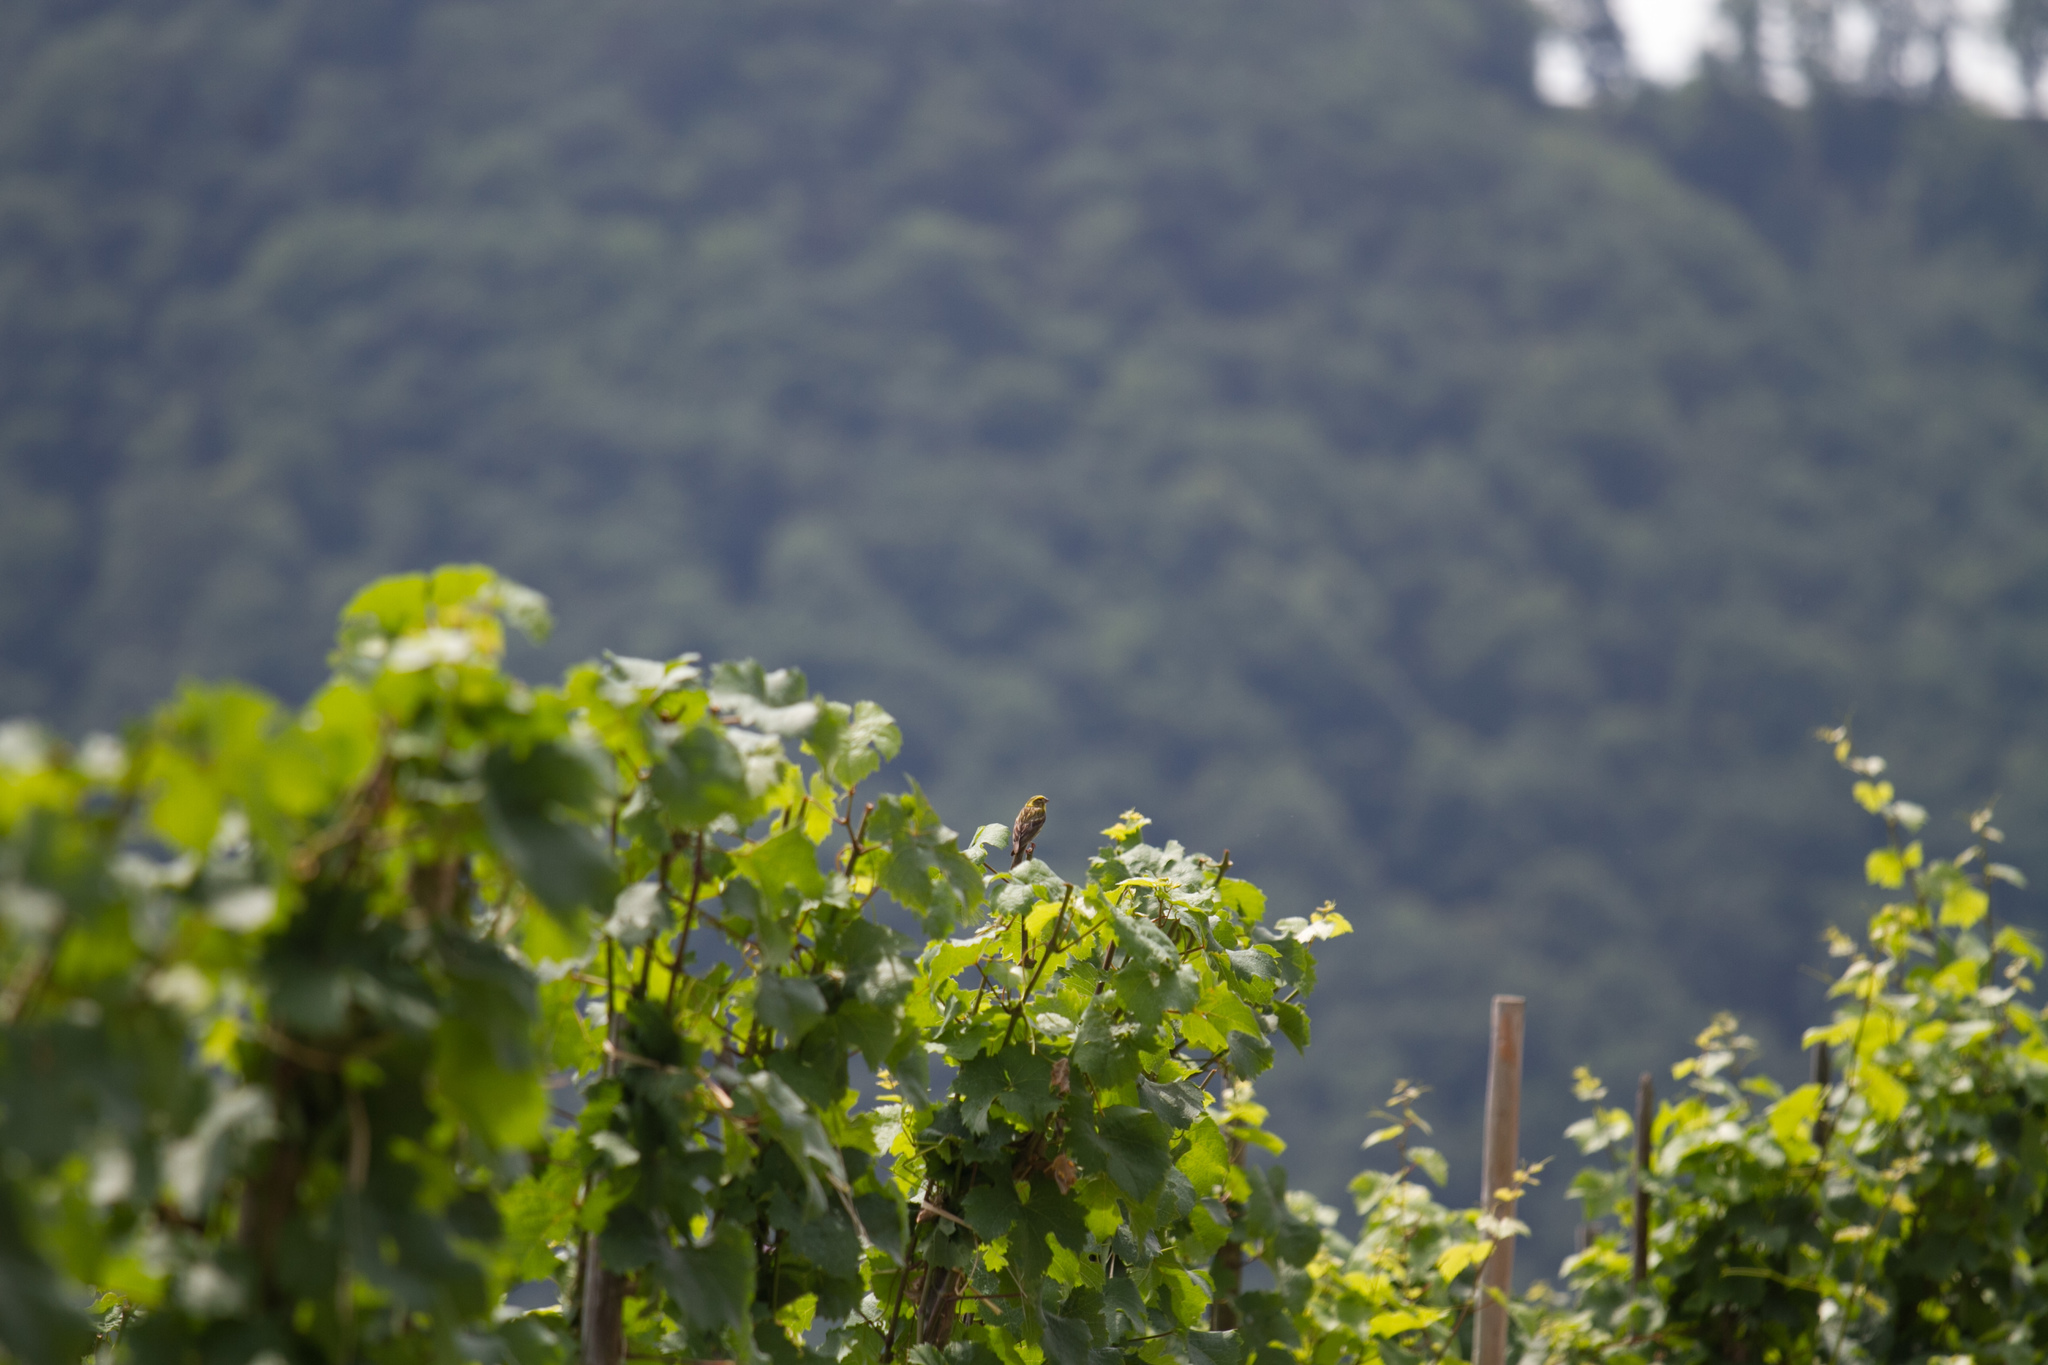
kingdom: Animalia
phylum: Chordata
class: Aves
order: Passeriformes
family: Fringillidae
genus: Serinus
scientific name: Serinus serinus
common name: European serin
